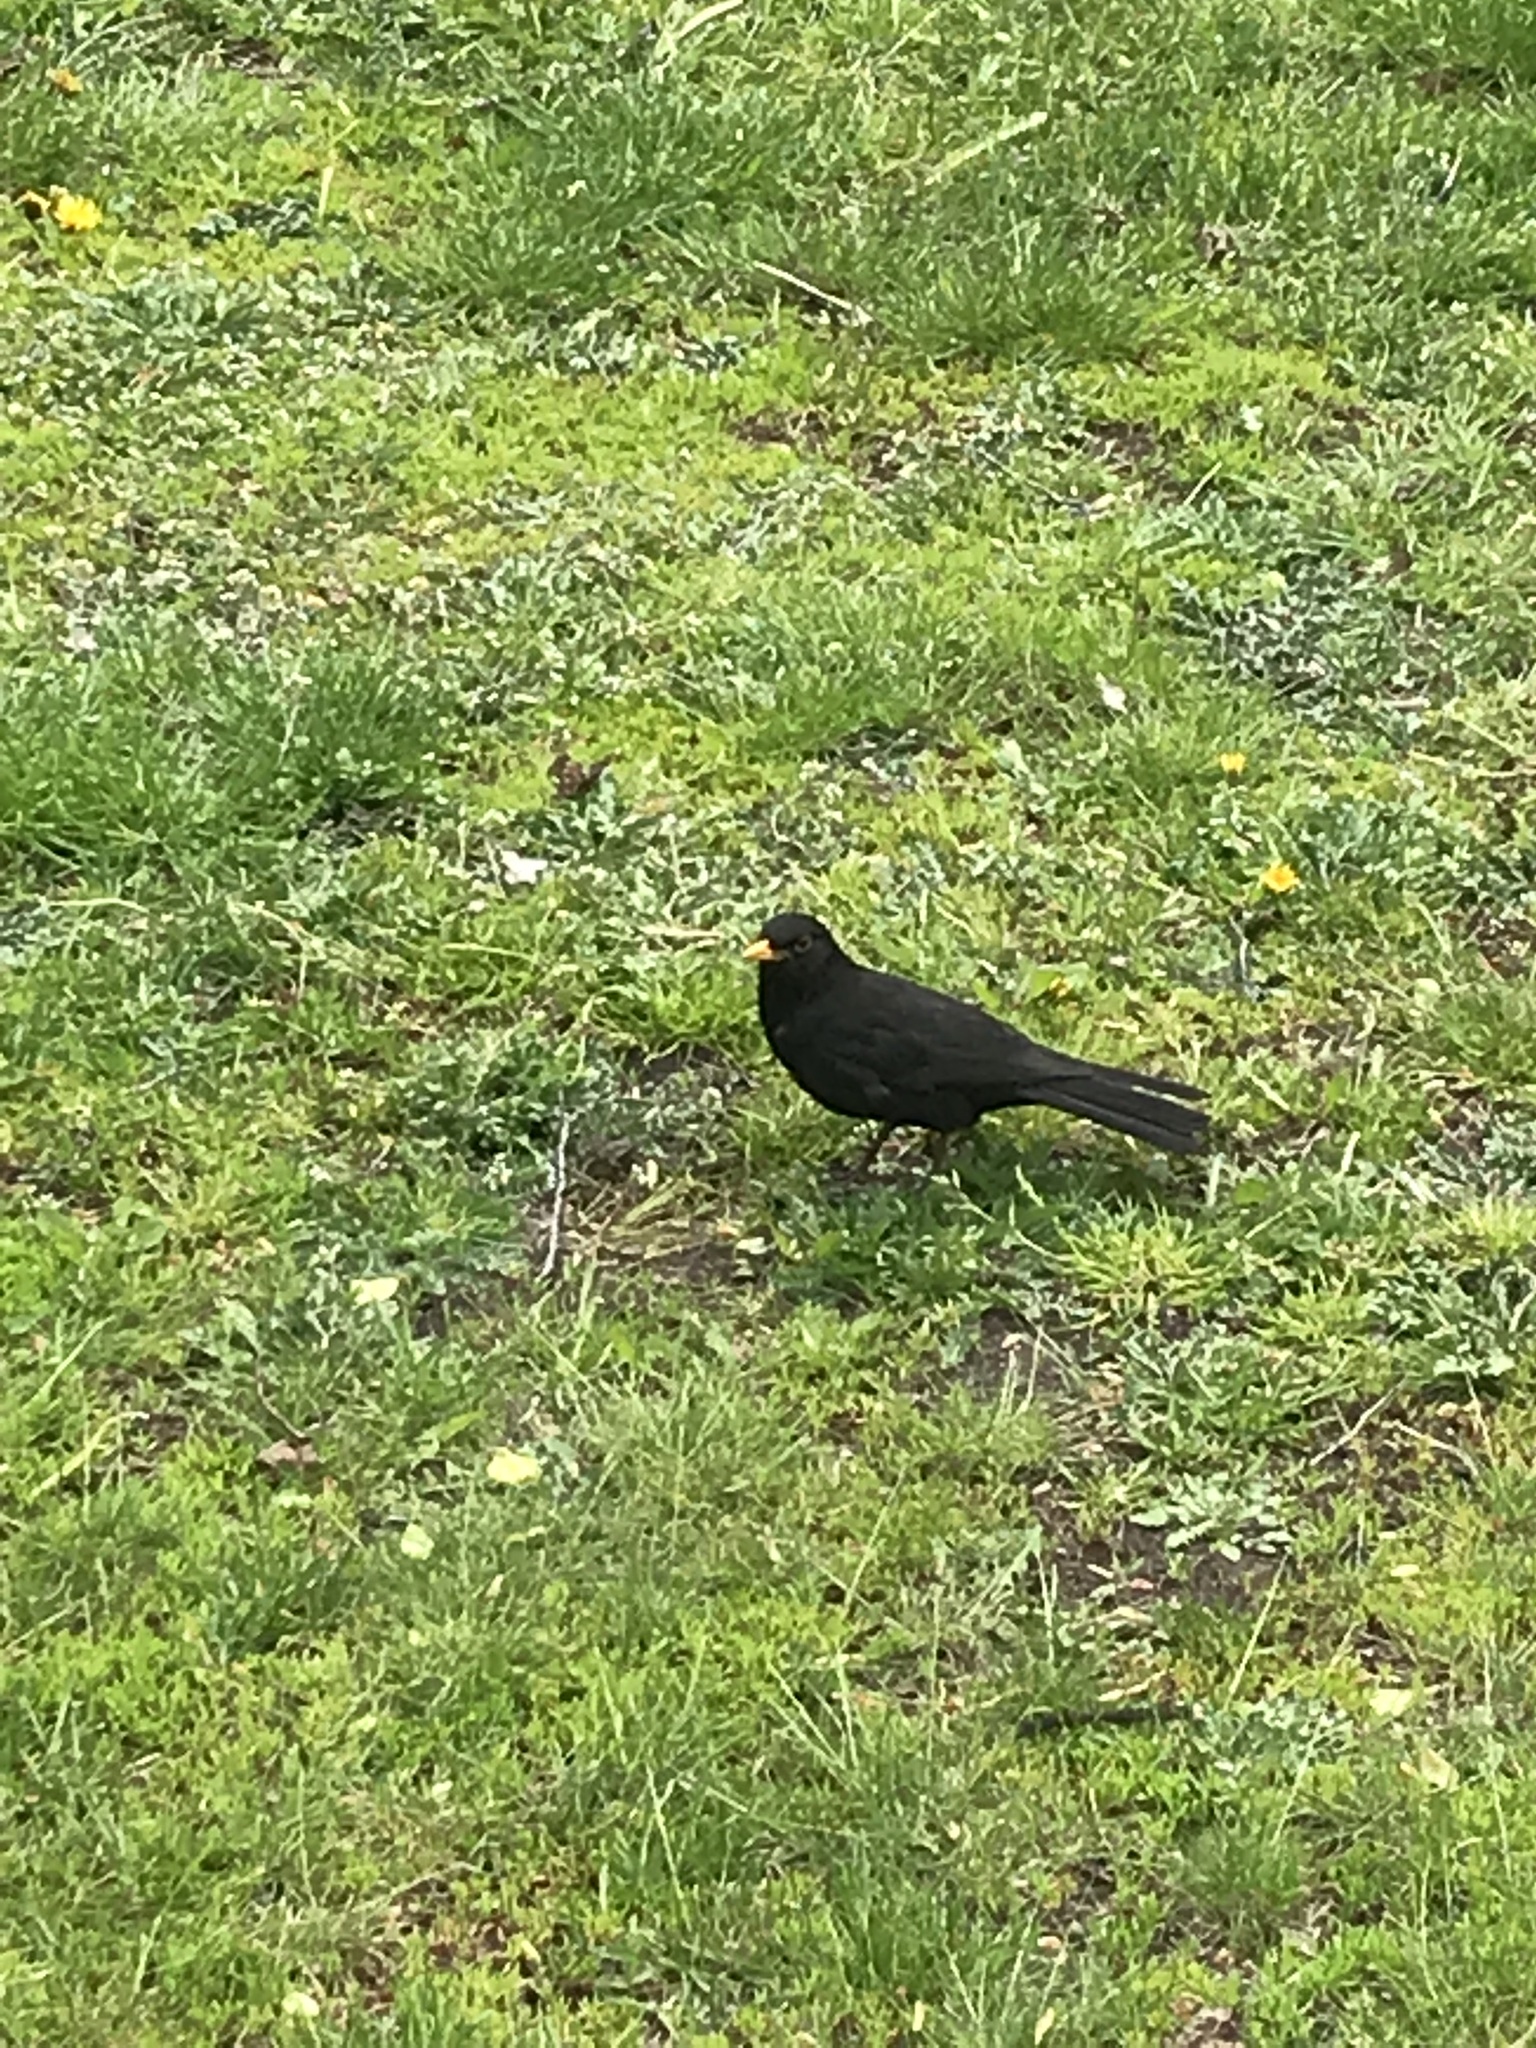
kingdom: Animalia
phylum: Chordata
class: Aves
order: Passeriformes
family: Turdidae
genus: Turdus
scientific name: Turdus merula
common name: Common blackbird
